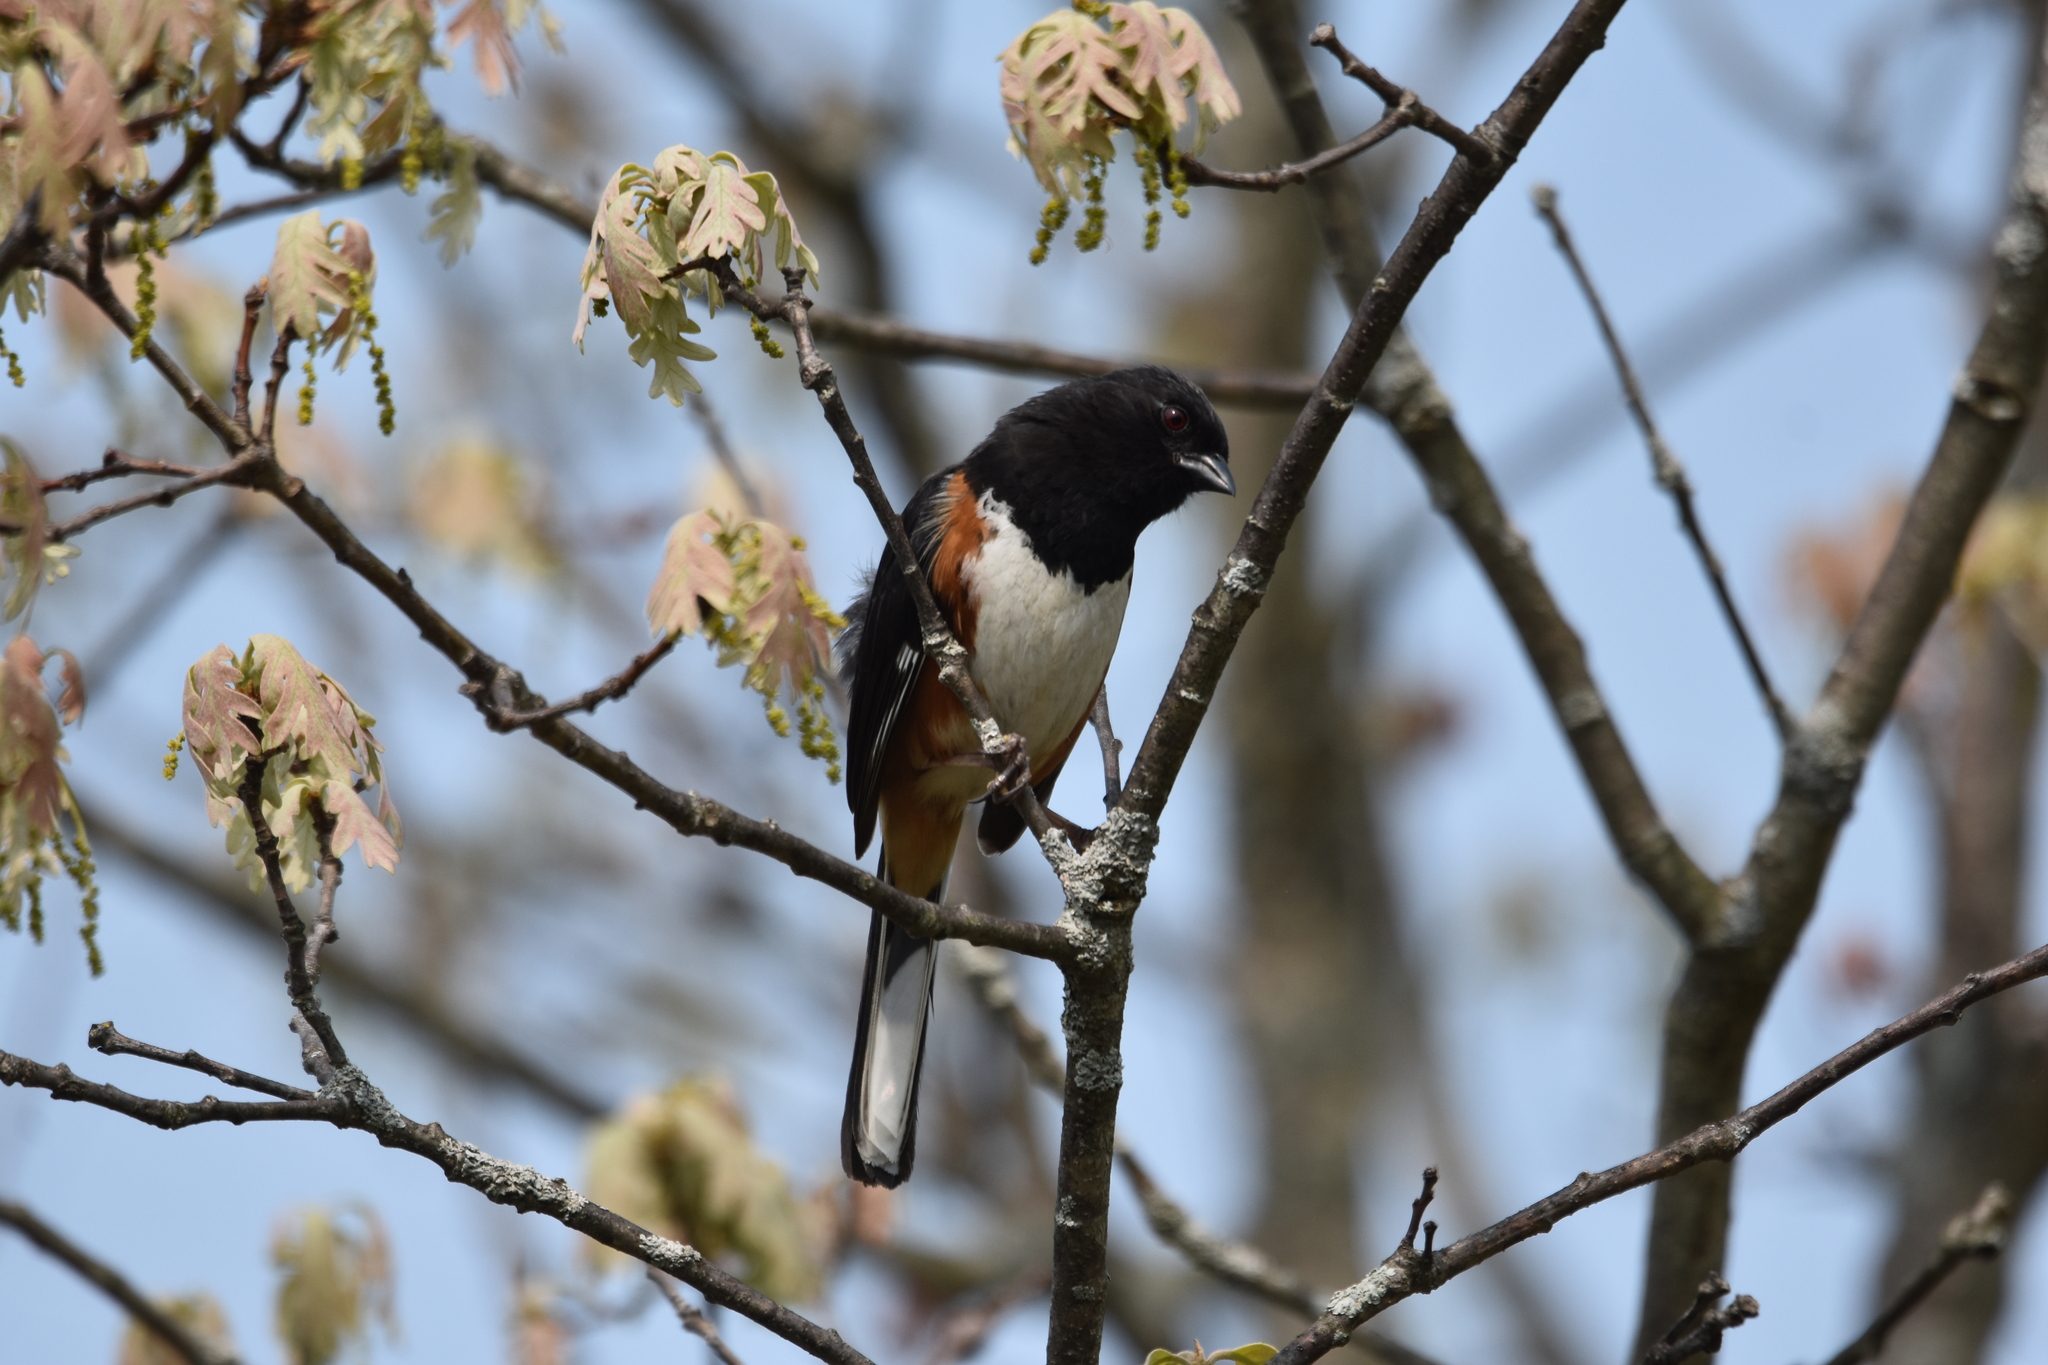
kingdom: Animalia
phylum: Chordata
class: Aves
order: Passeriformes
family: Passerellidae
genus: Pipilo
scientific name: Pipilo erythrophthalmus
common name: Eastern towhee
